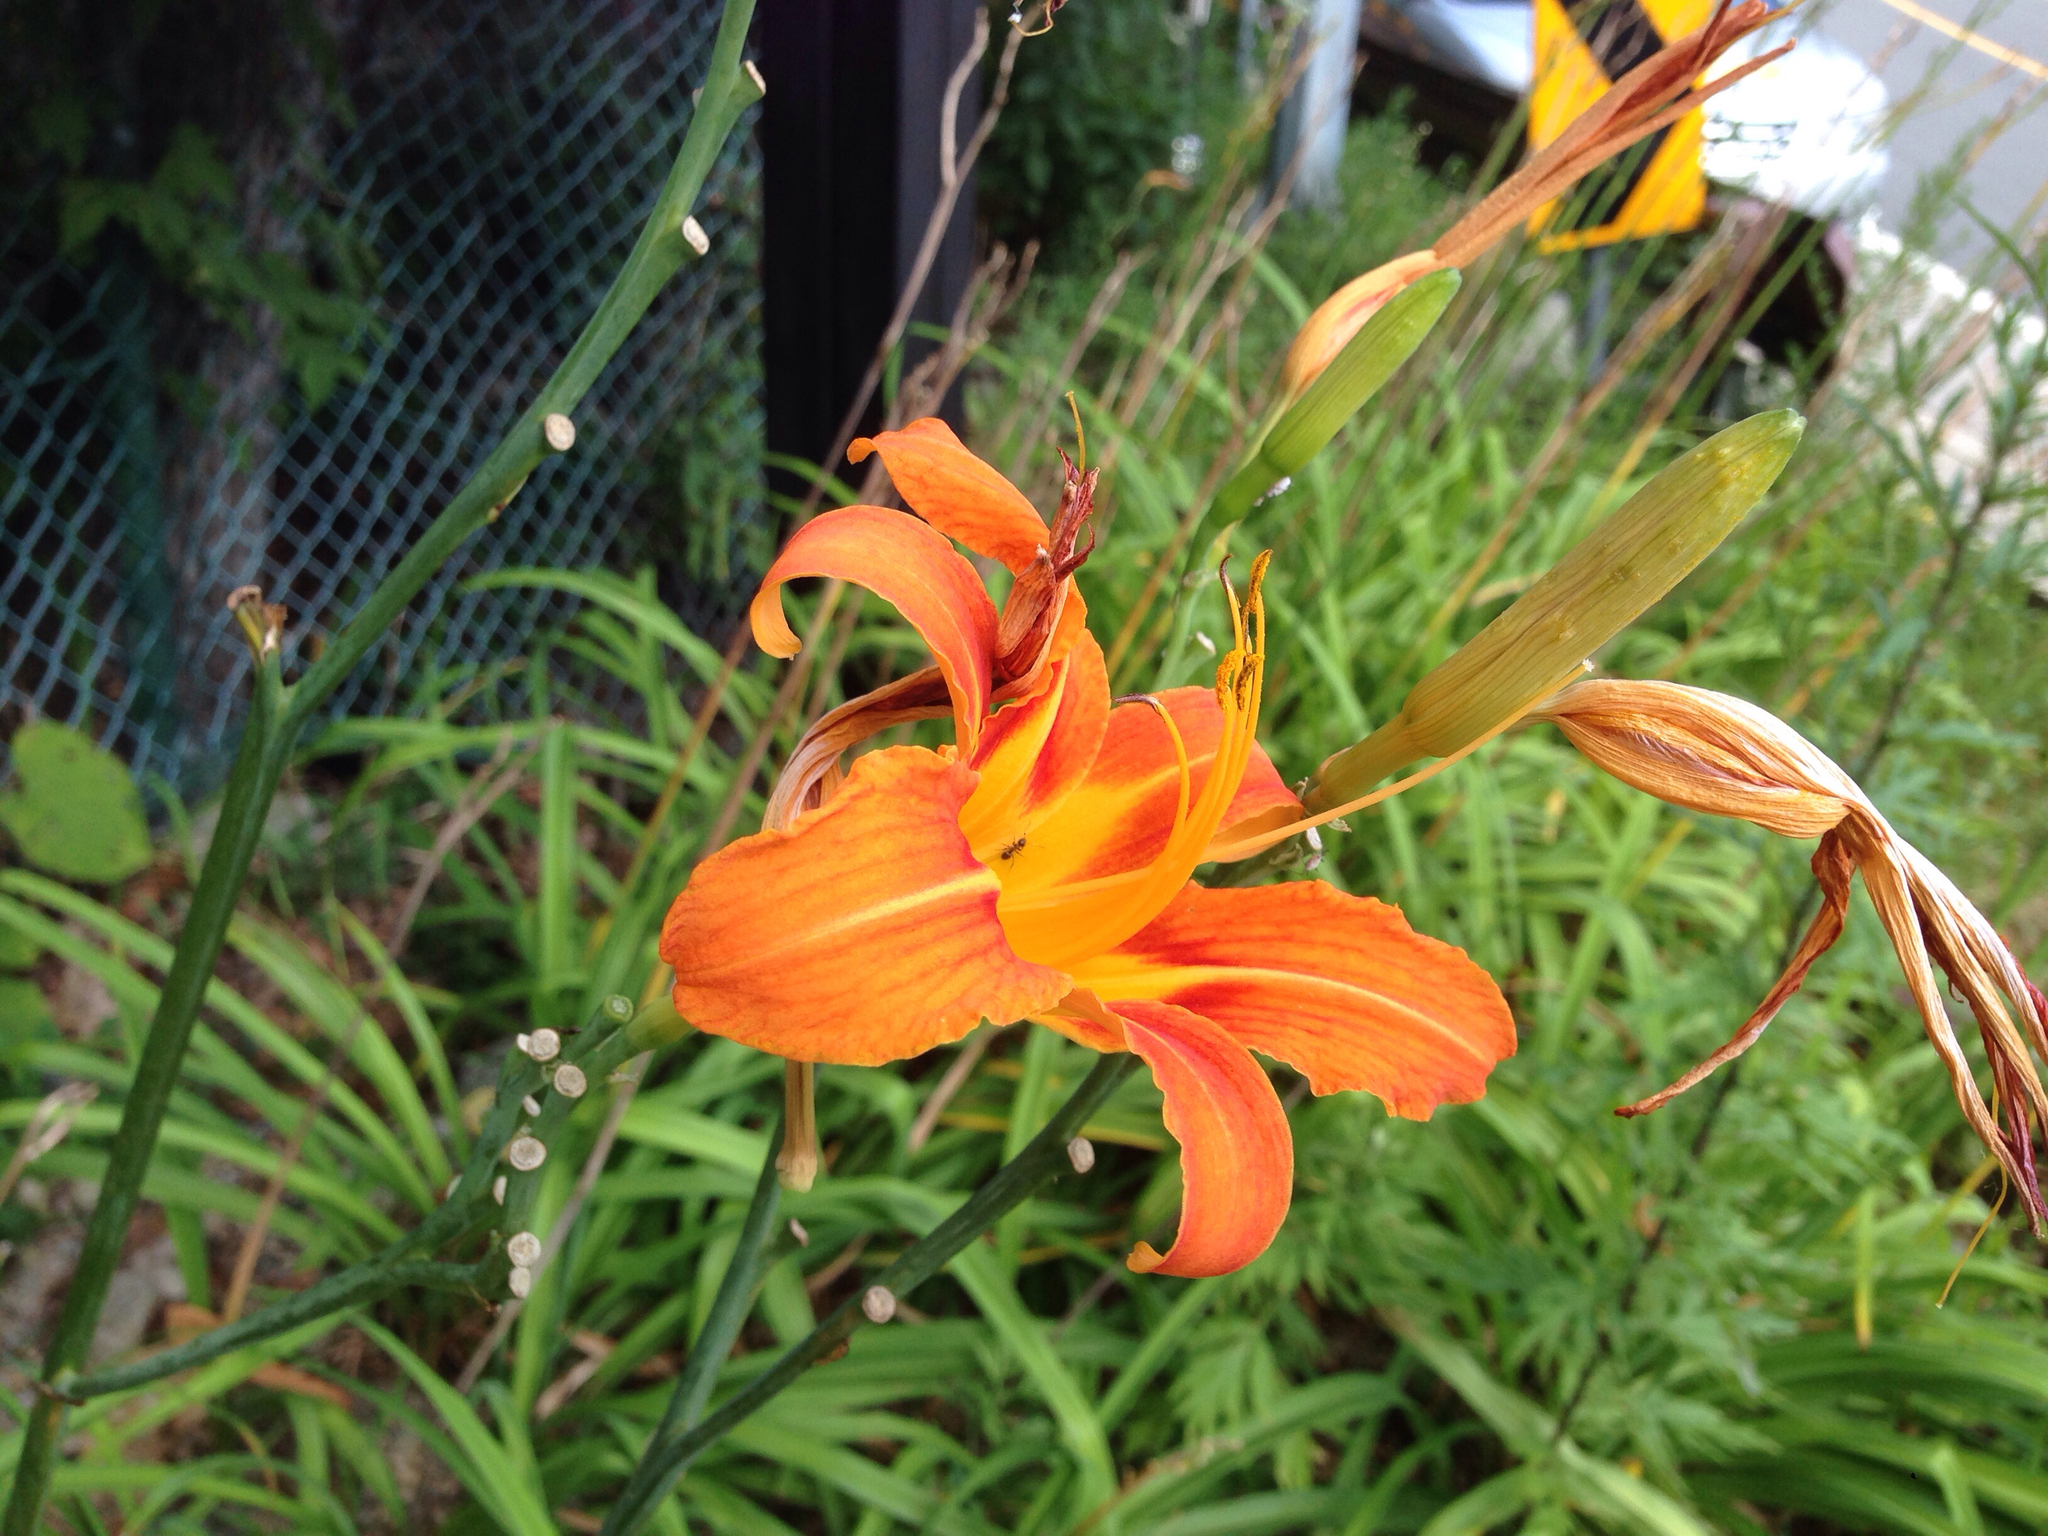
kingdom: Plantae
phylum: Tracheophyta
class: Liliopsida
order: Asparagales
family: Asphodelaceae
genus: Hemerocallis
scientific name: Hemerocallis fulva
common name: Orange day-lily
